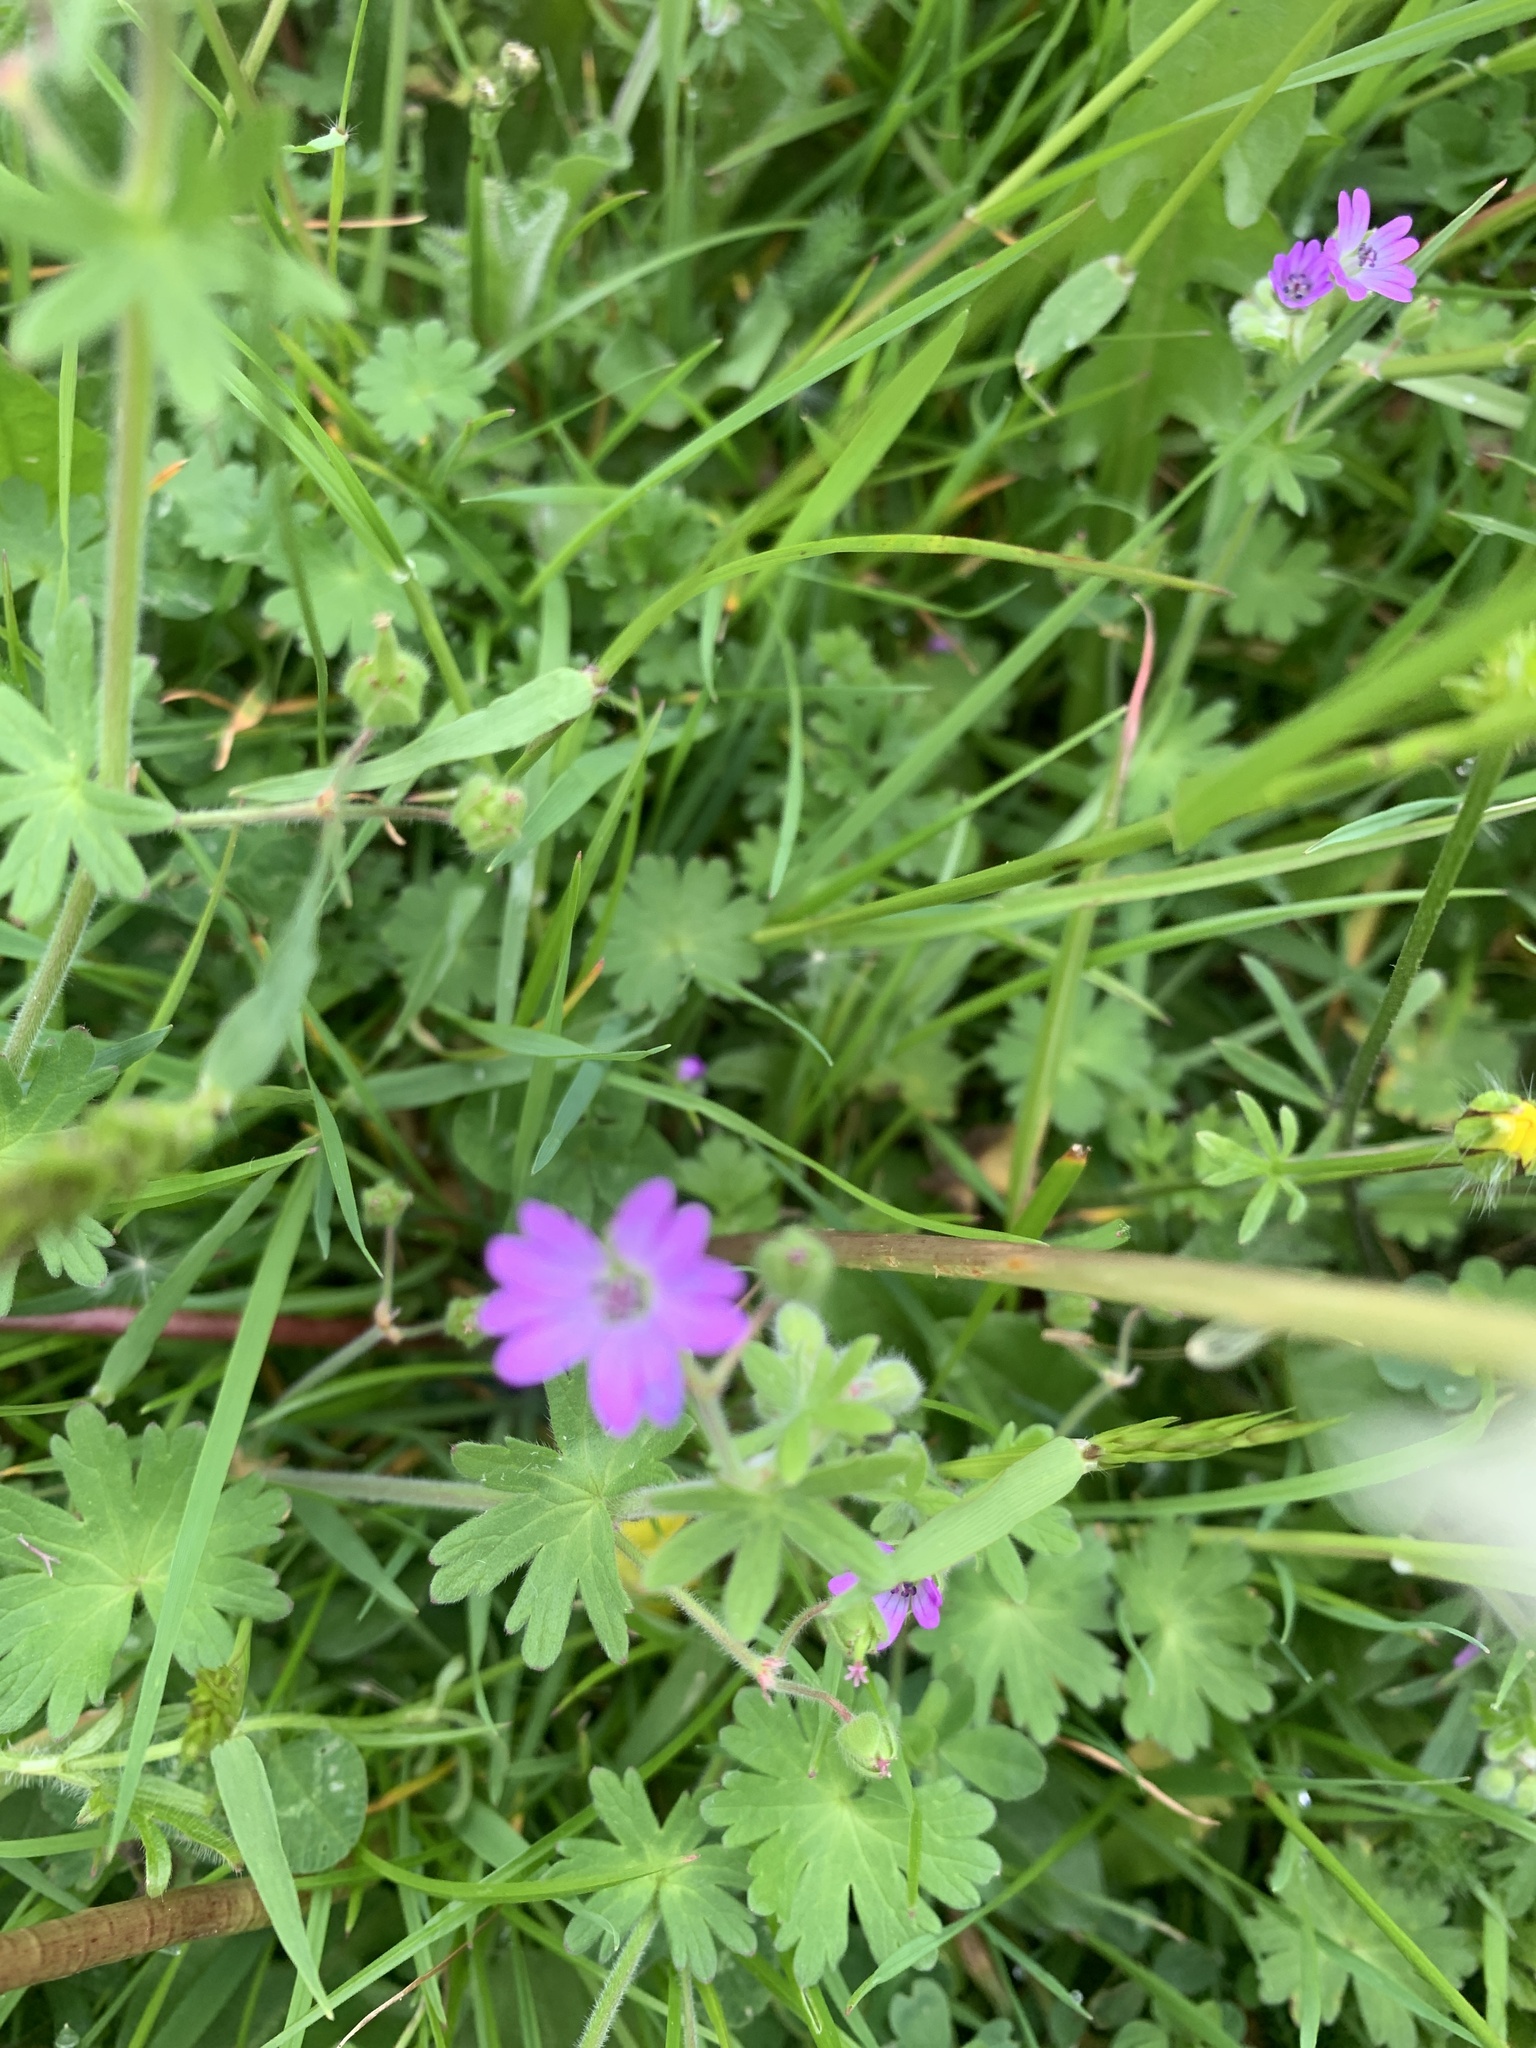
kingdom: Plantae
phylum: Tracheophyta
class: Magnoliopsida
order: Geraniales
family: Geraniaceae
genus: Geranium
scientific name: Geranium molle
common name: Dove's-foot crane's-bill
